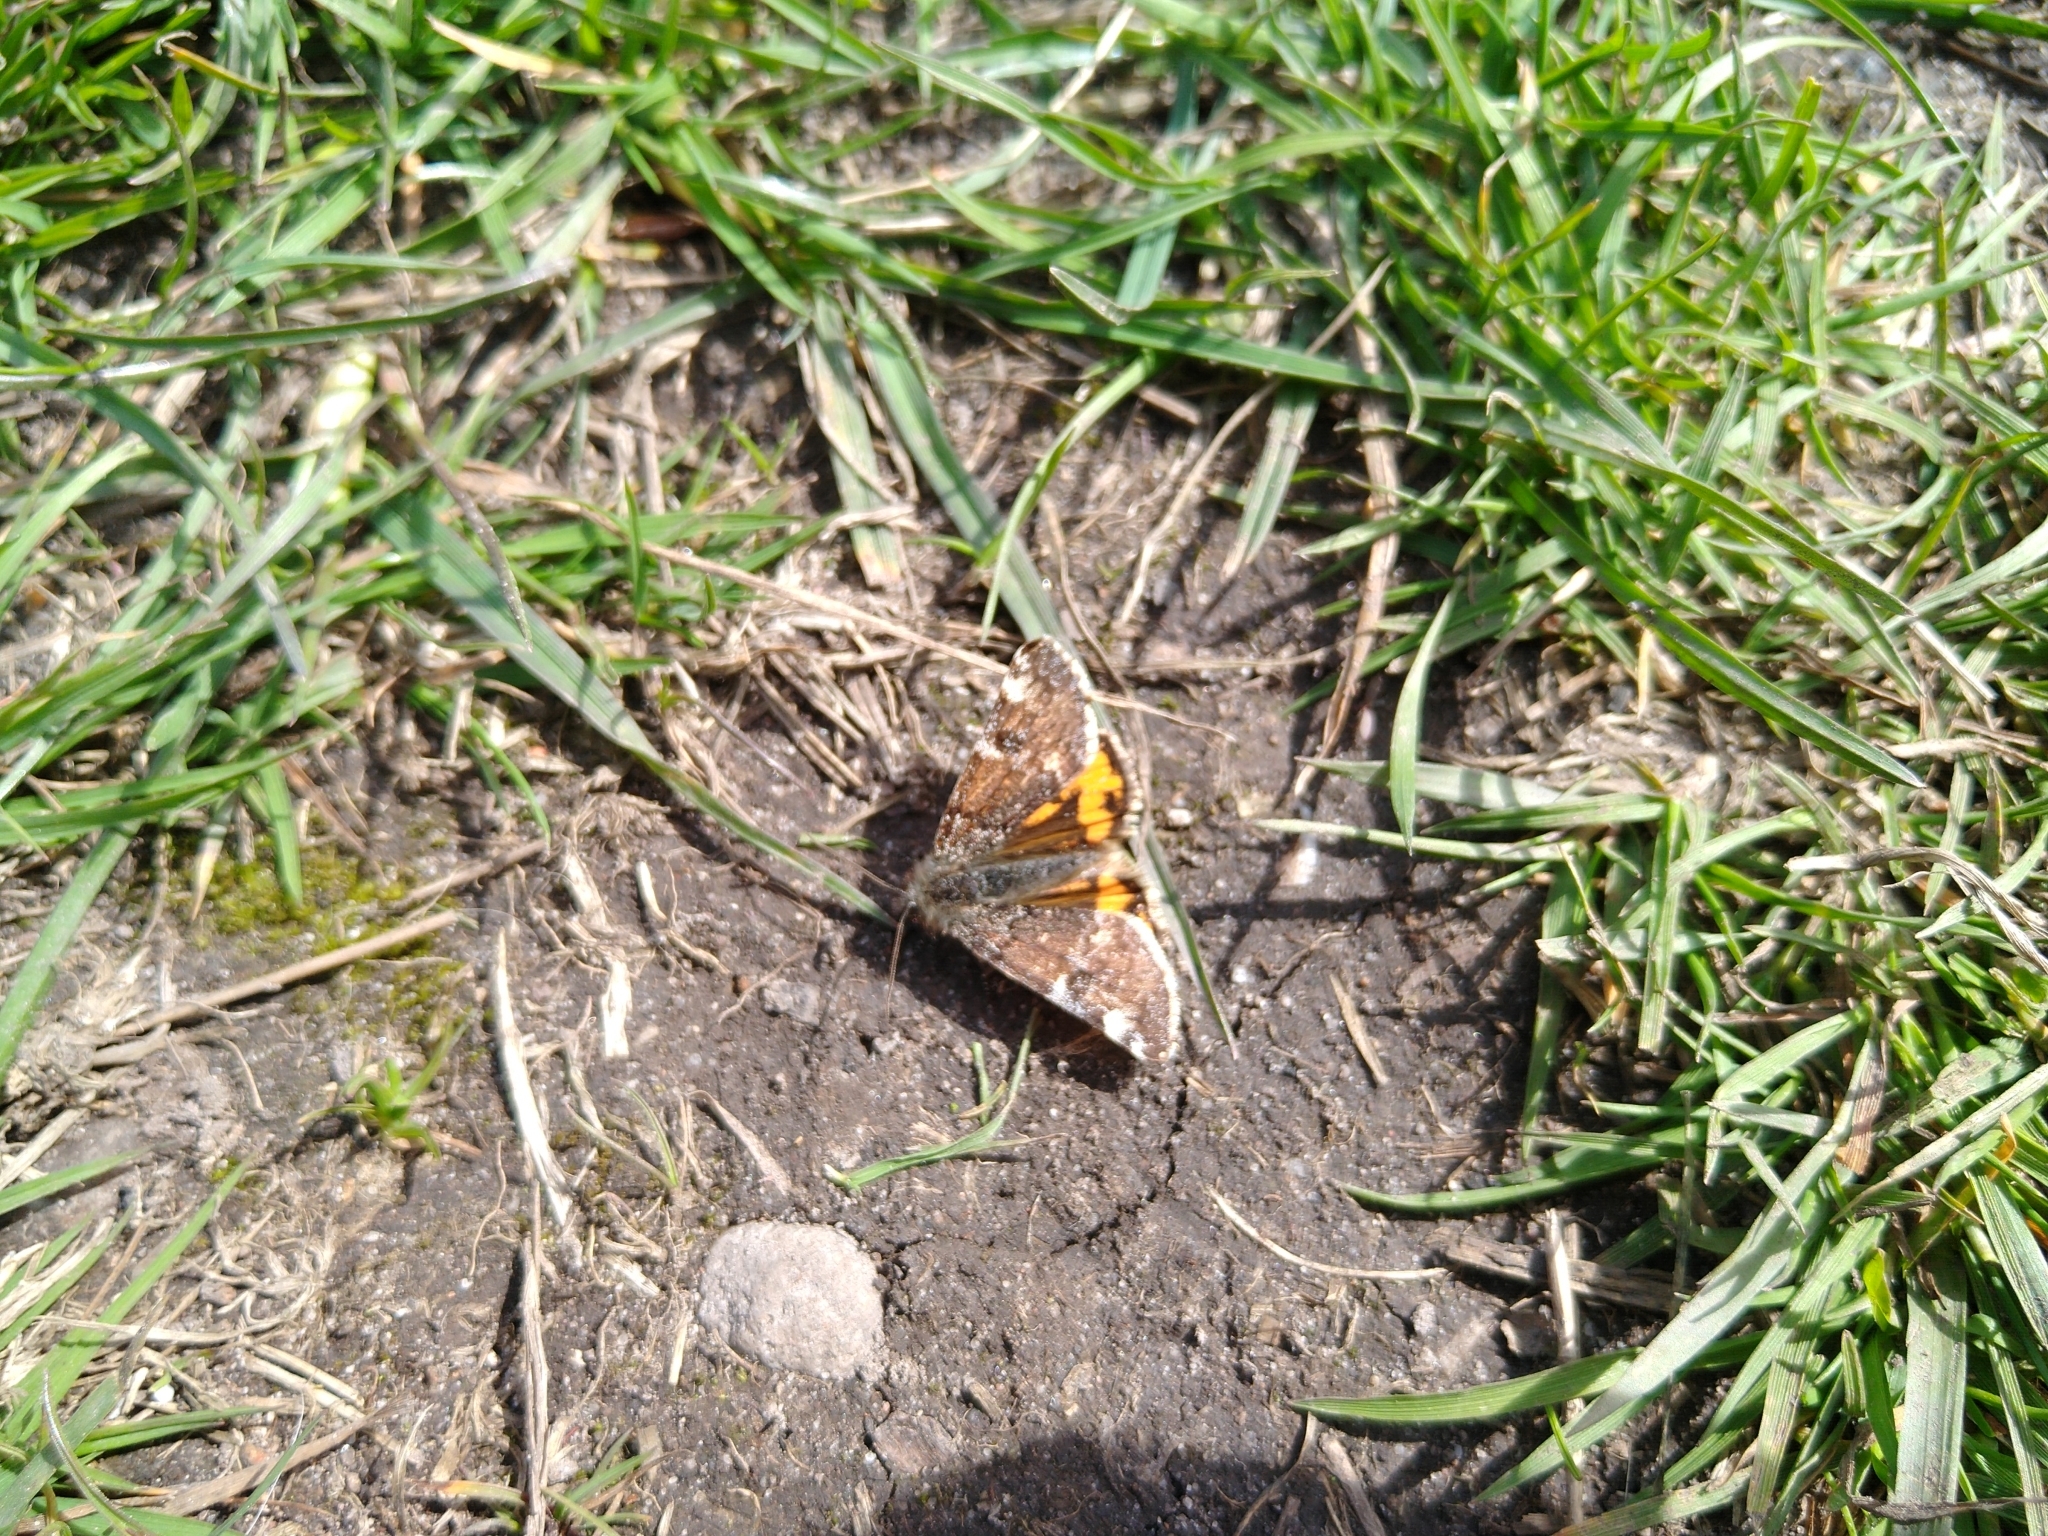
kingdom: Animalia
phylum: Arthropoda
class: Insecta
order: Lepidoptera
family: Geometridae
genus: Archiearis
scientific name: Archiearis parthenias
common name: Orange underwing
